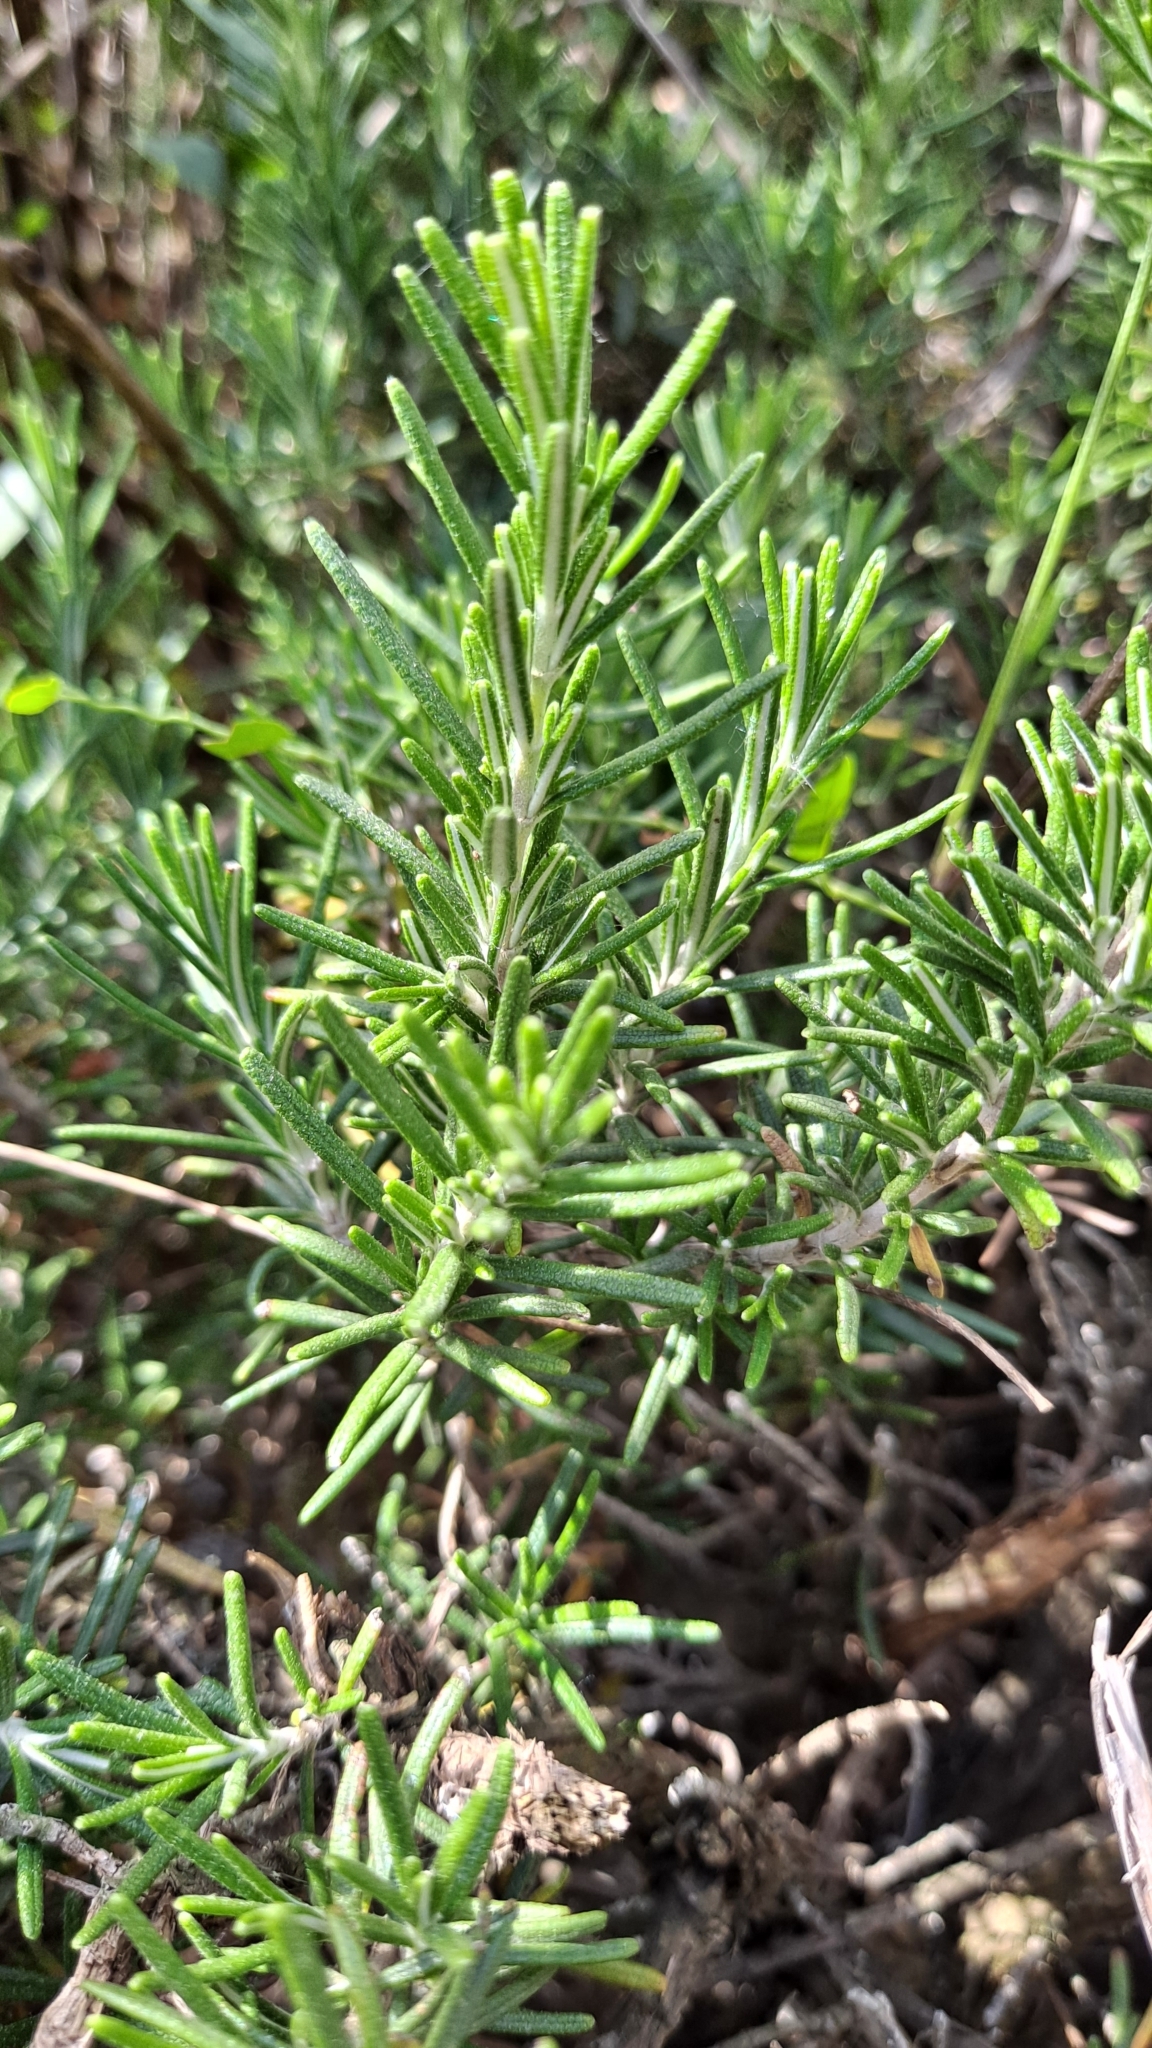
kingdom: Plantae
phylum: Tracheophyta
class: Magnoliopsida
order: Lamiales
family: Lamiaceae
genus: Salvia
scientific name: Salvia rosmarinus
